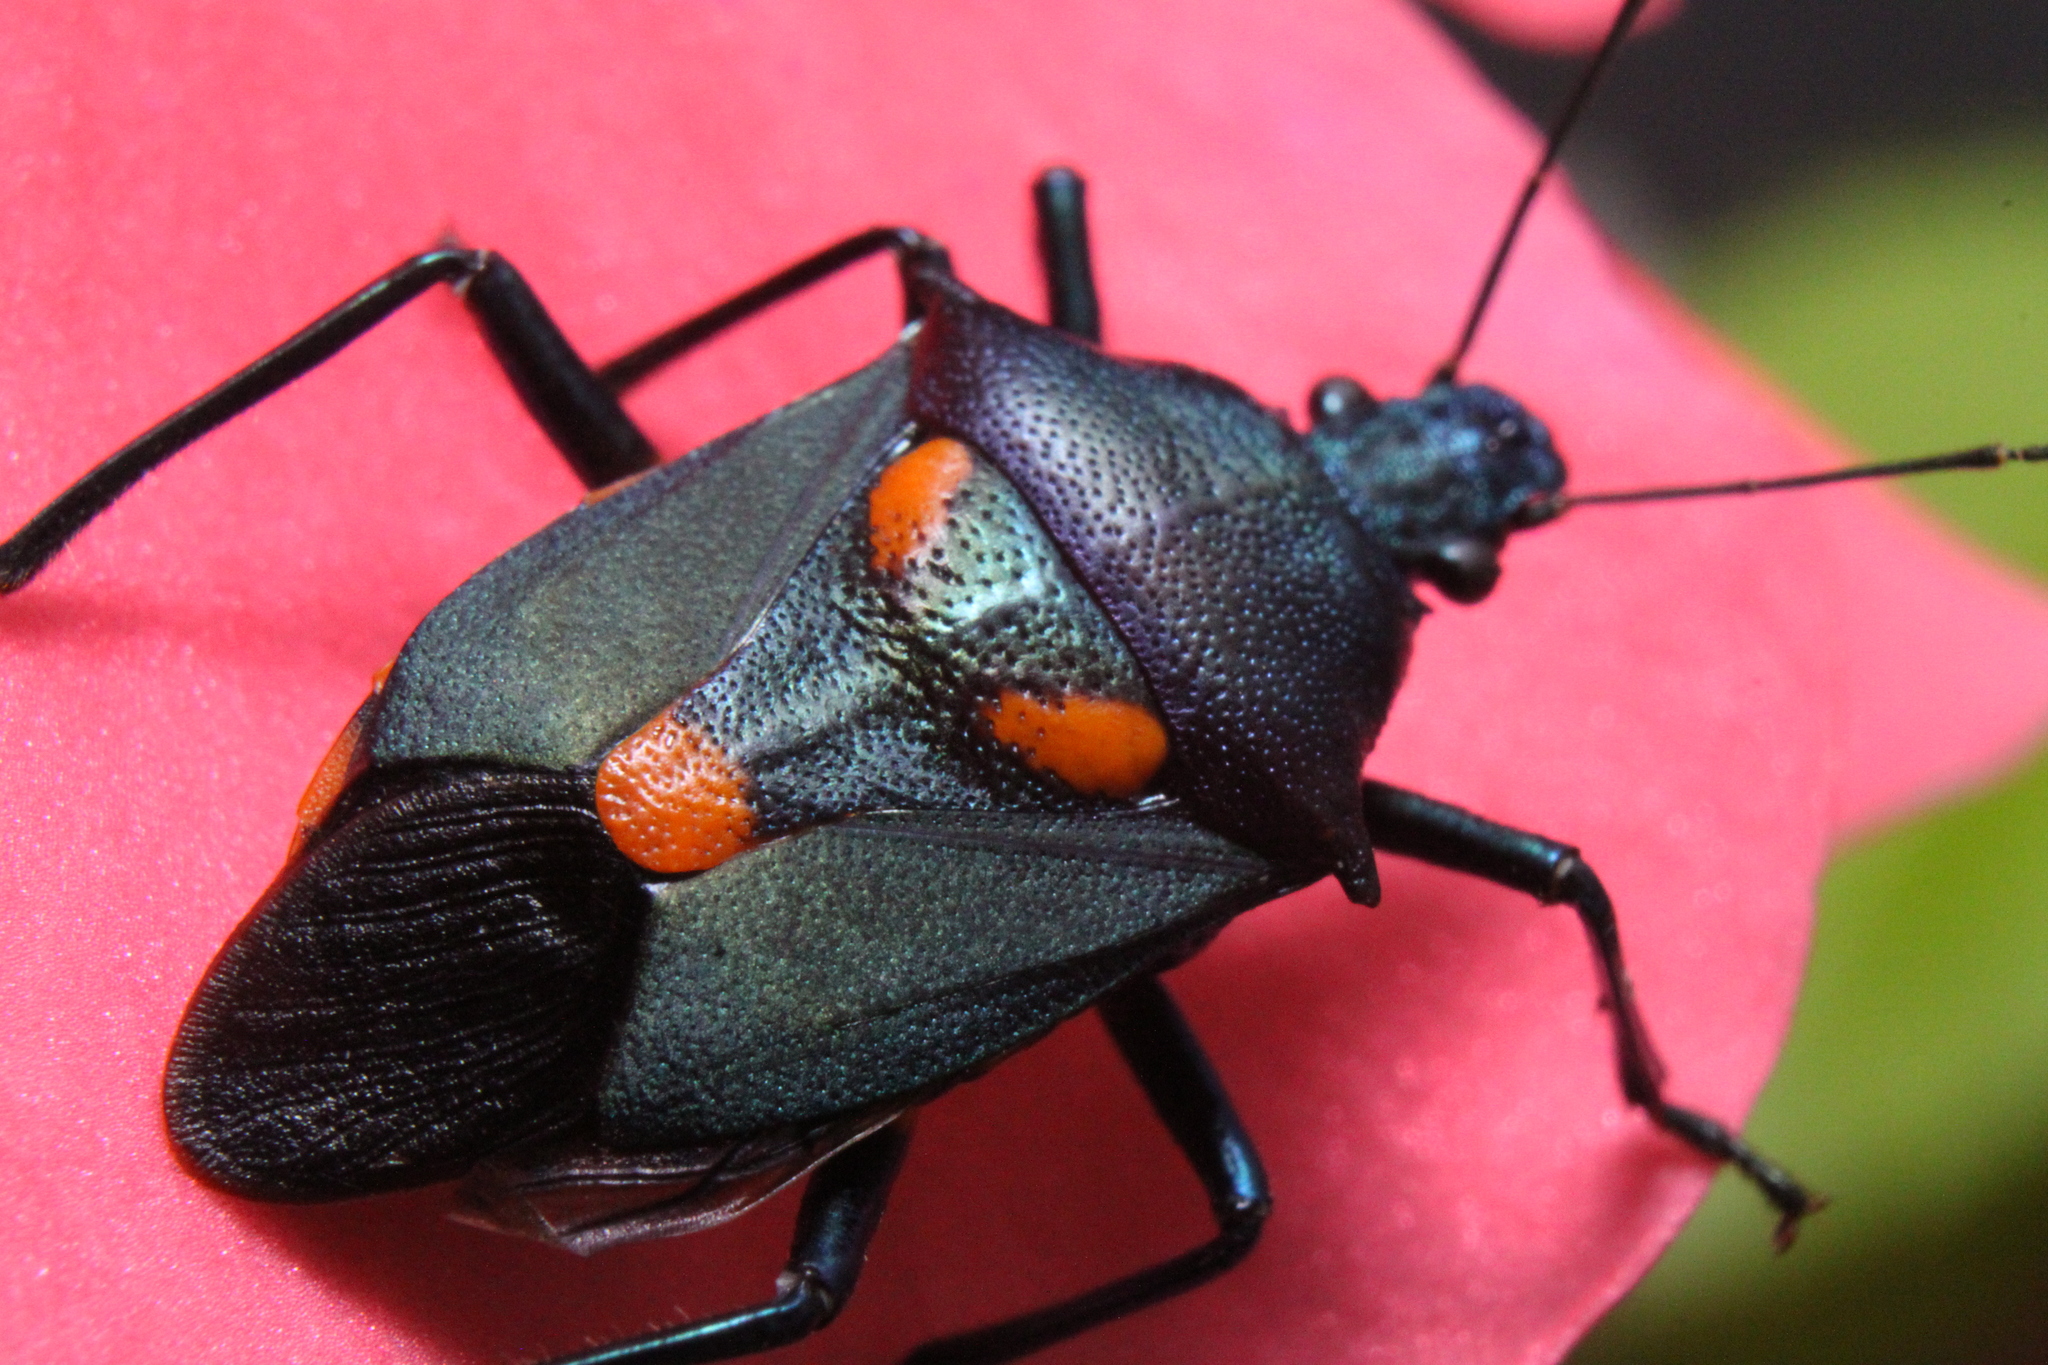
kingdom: Animalia
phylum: Arthropoda
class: Insecta
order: Hemiptera
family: Pentatomidae
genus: Euthyrhynchus
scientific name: Euthyrhynchus floridanus
